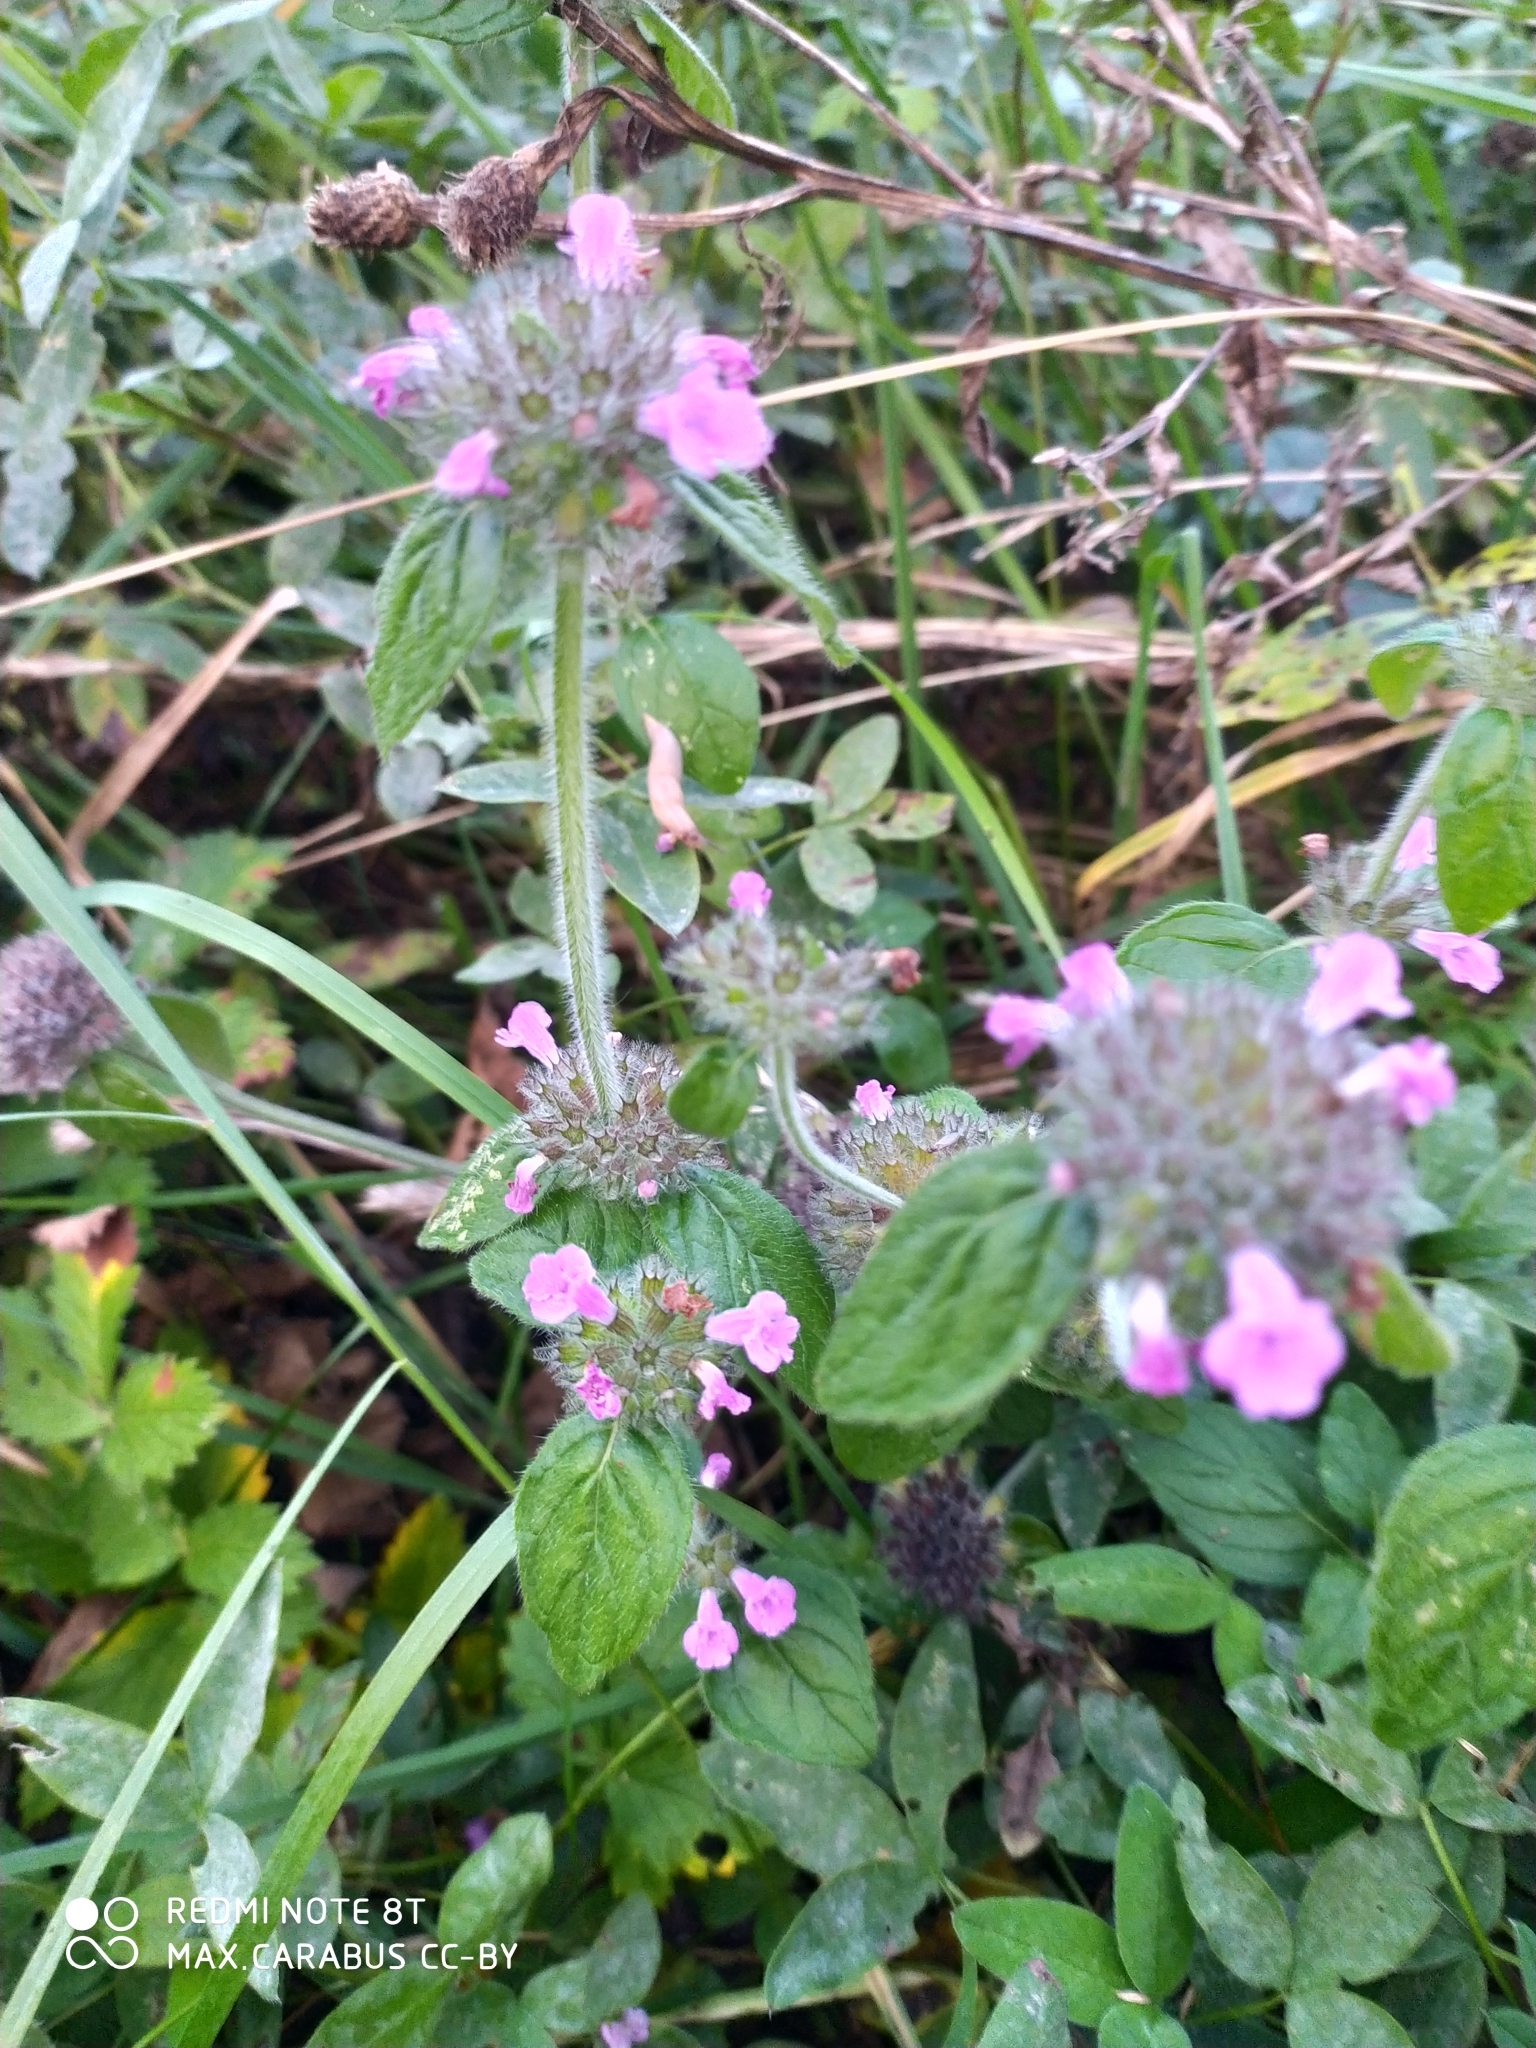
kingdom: Plantae
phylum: Tracheophyta
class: Magnoliopsida
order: Lamiales
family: Lamiaceae
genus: Clinopodium
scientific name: Clinopodium vulgare
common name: Wild basil
